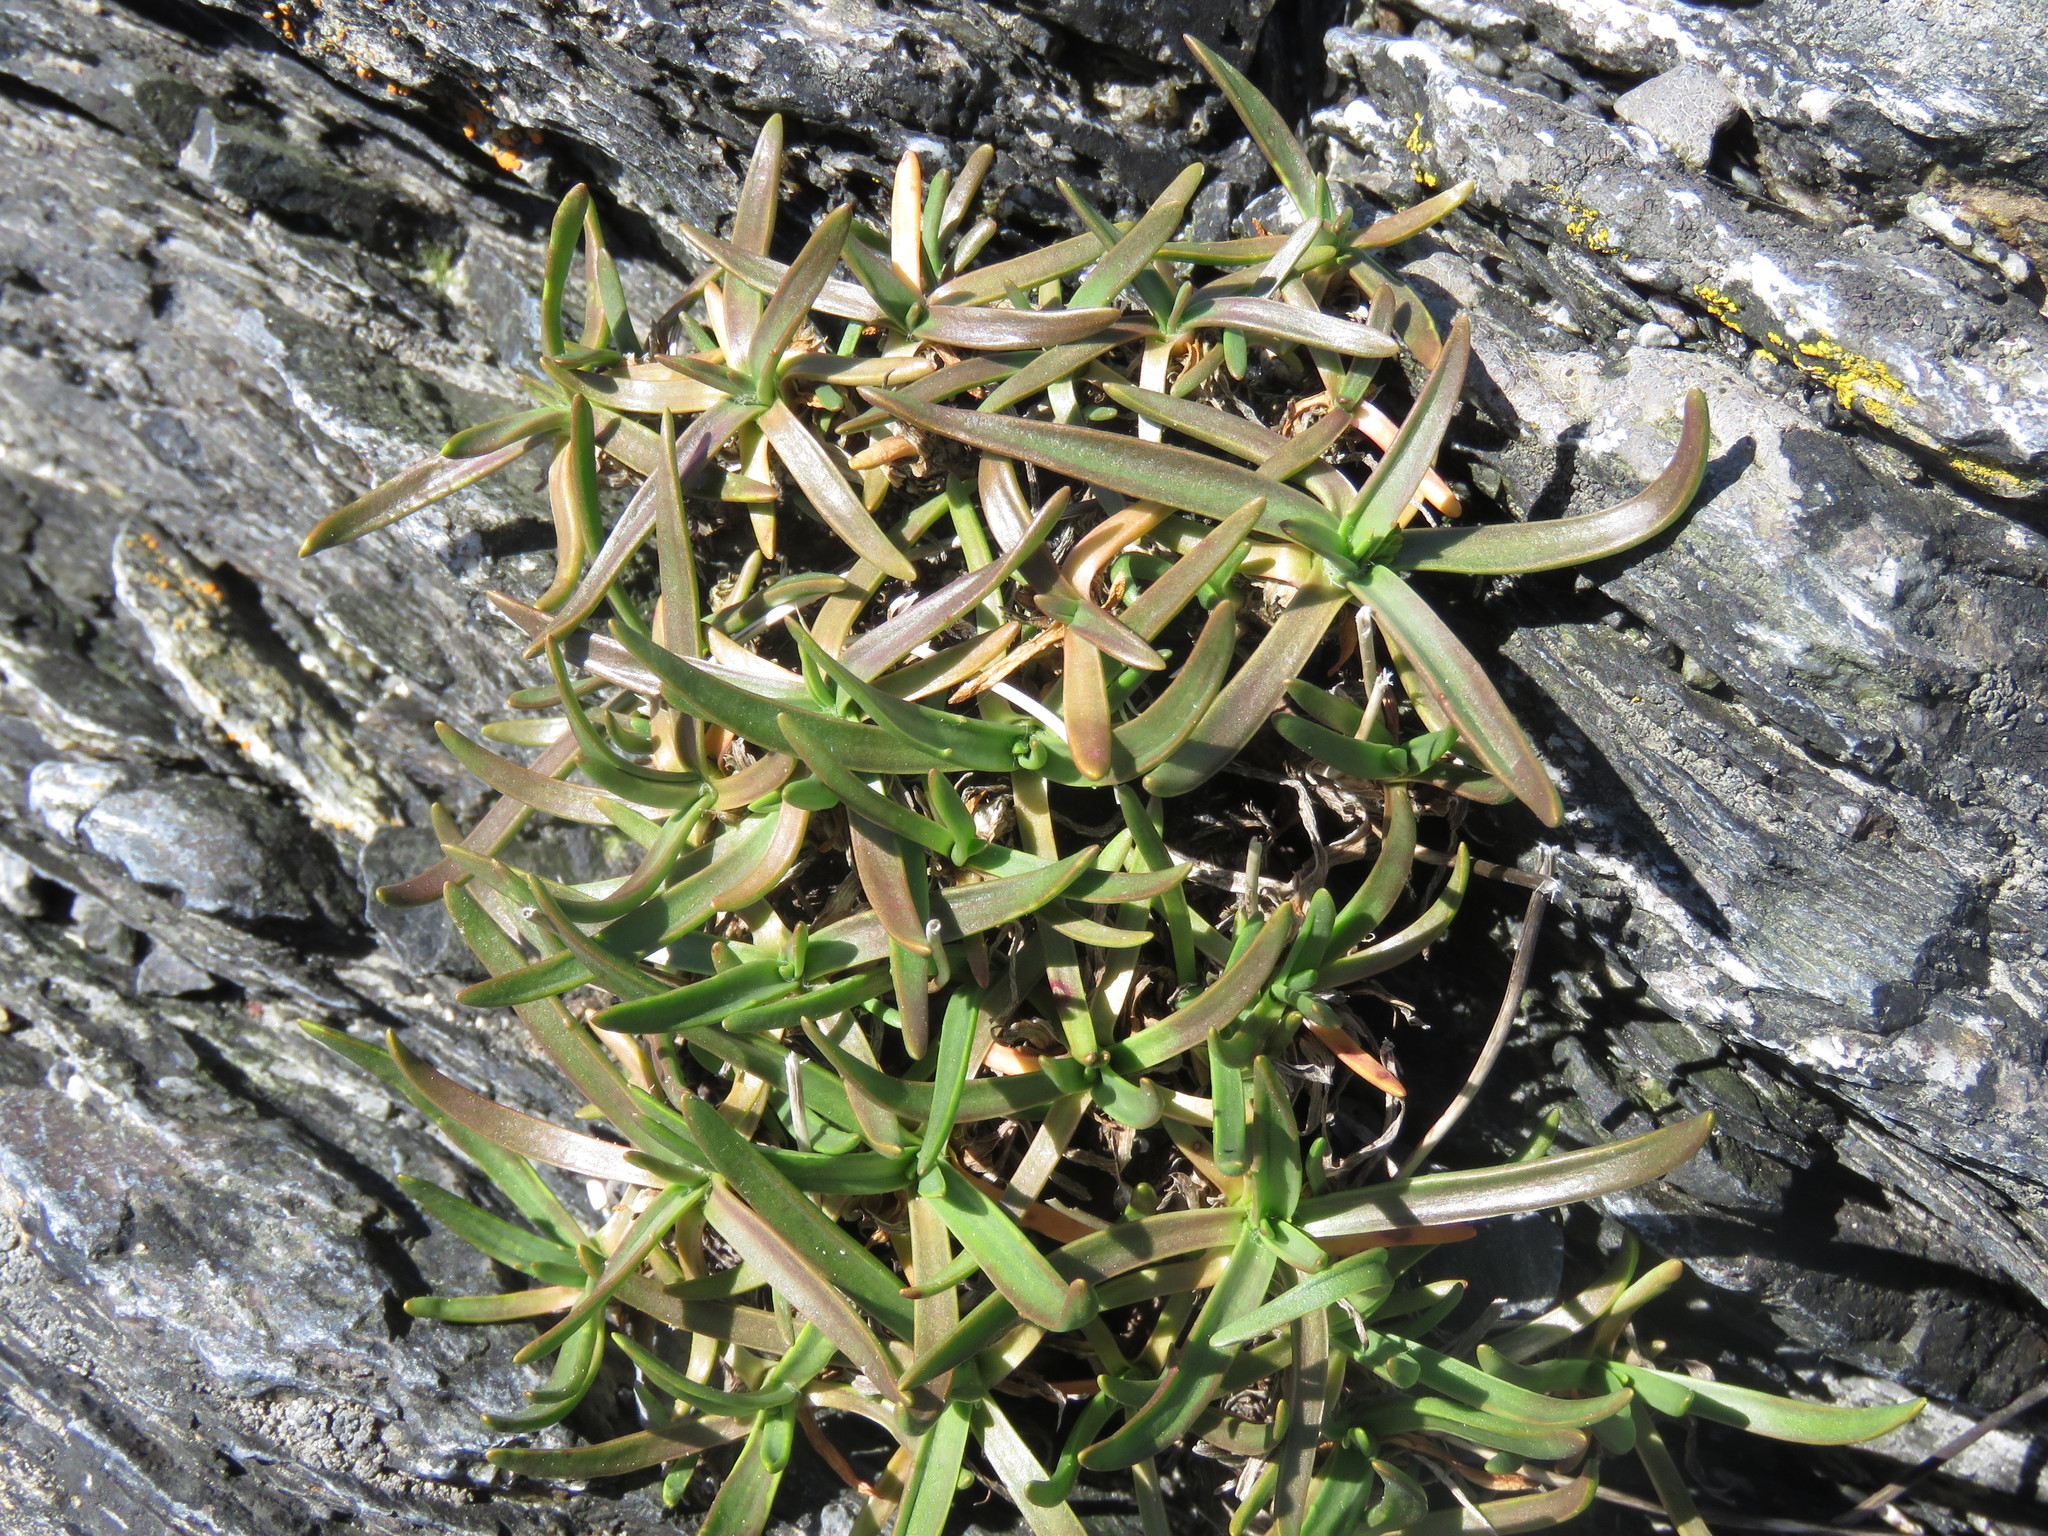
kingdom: Plantae
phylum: Tracheophyta
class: Magnoliopsida
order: Lamiales
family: Plantaginaceae
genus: Plantago
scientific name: Plantago maritima
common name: Sea plantain
